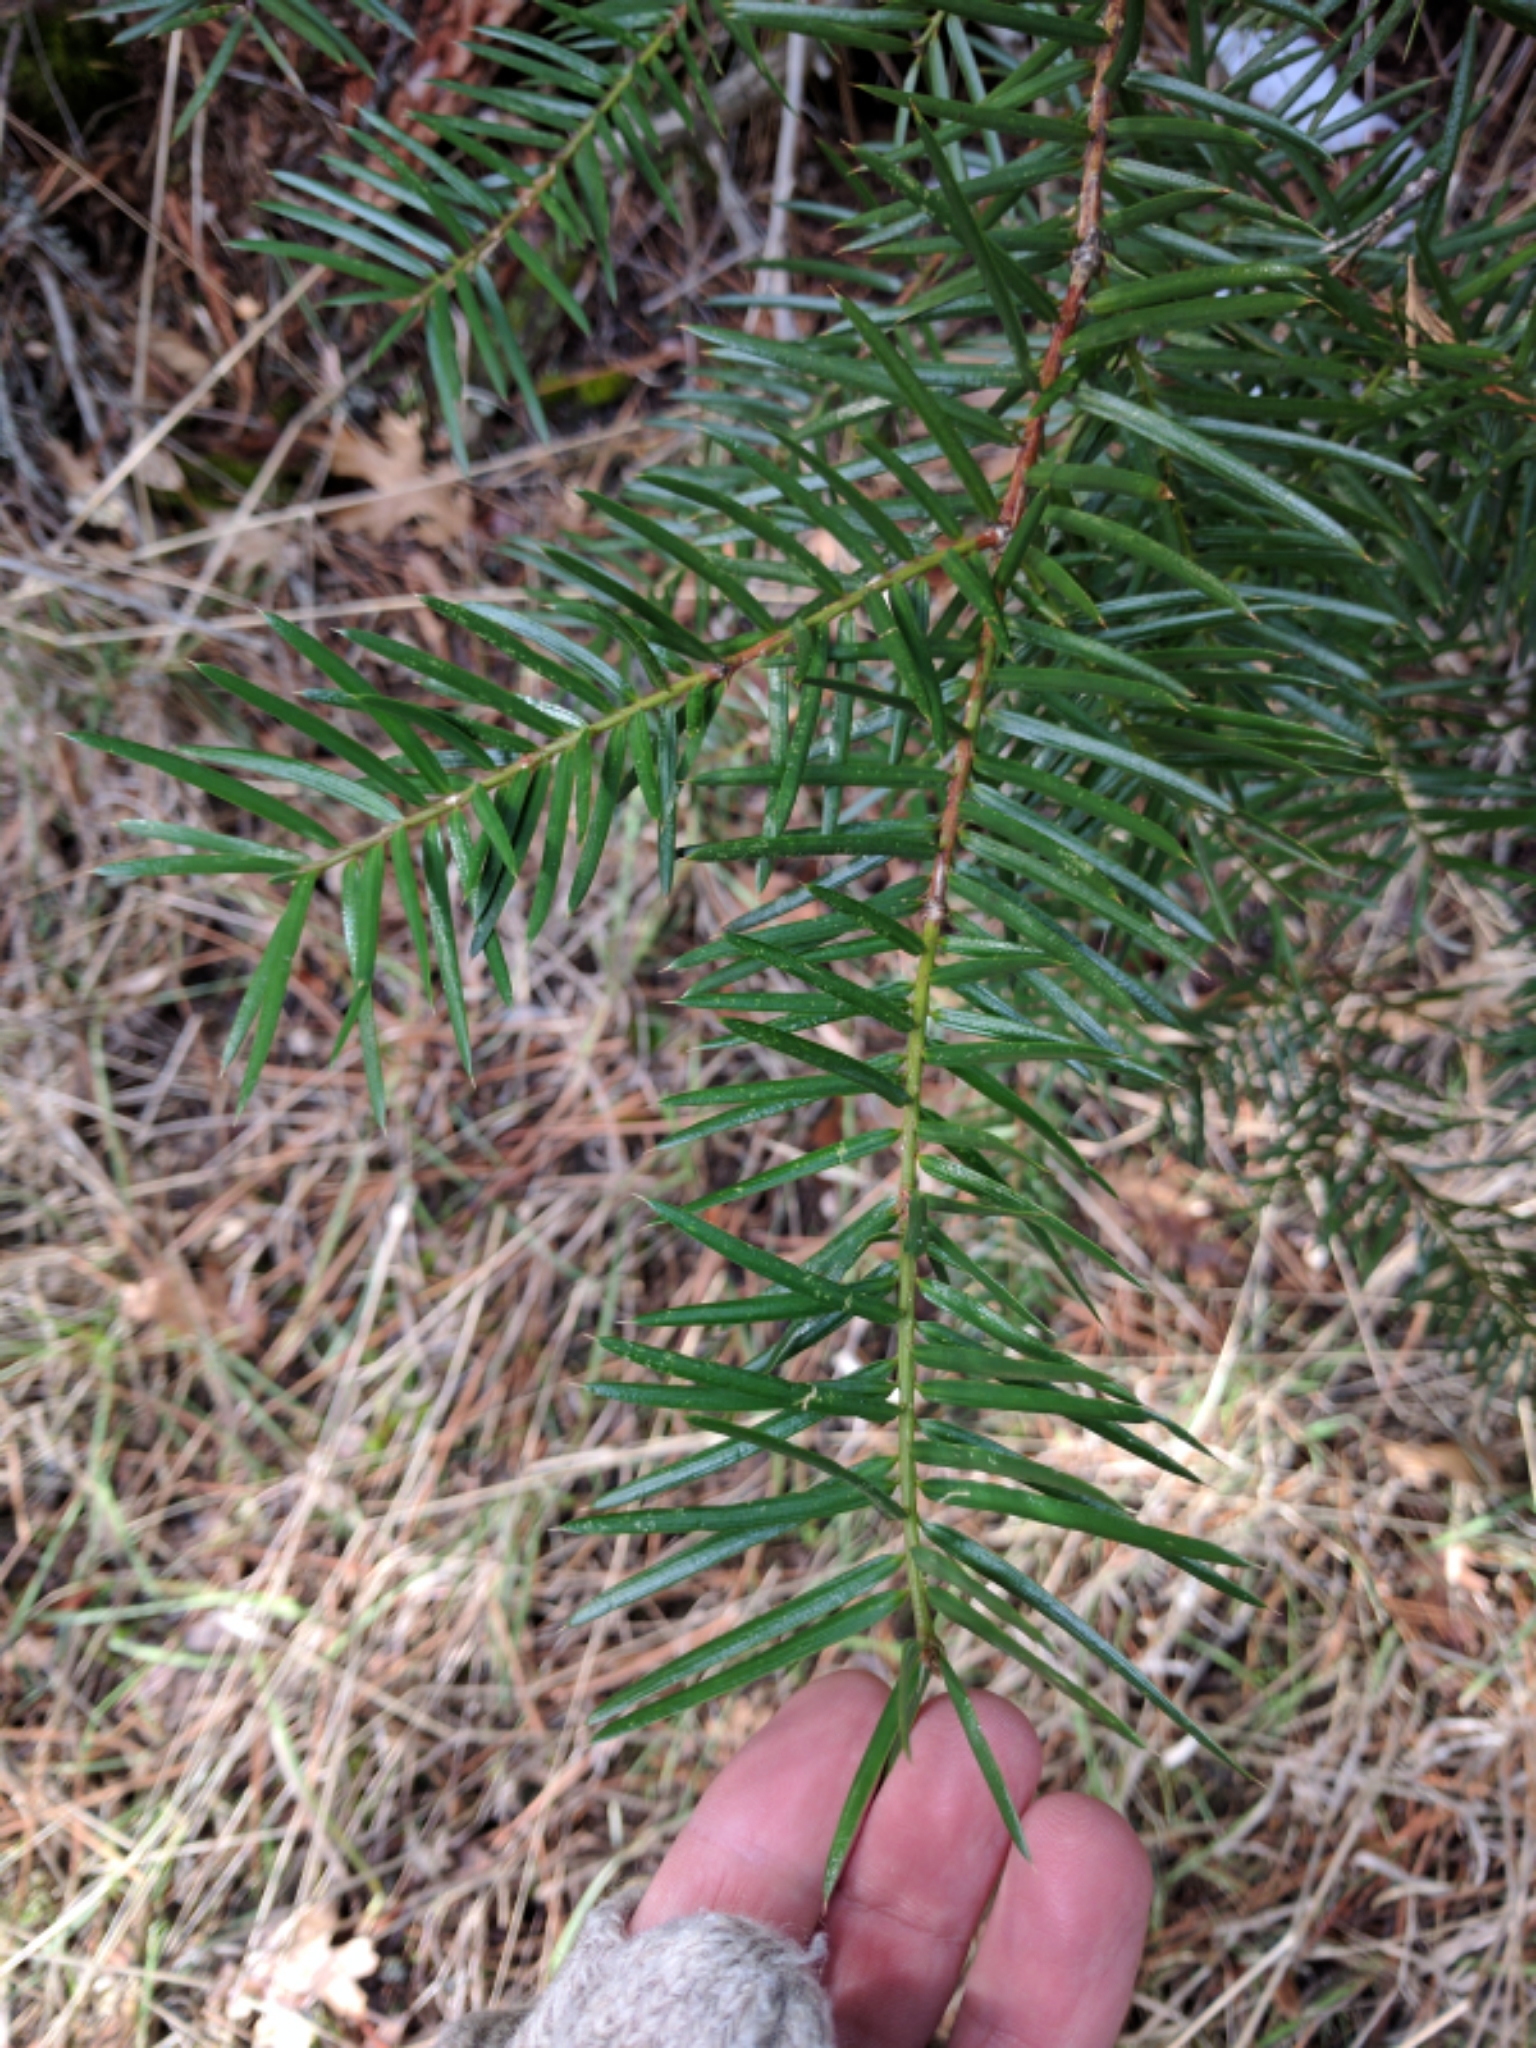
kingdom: Plantae
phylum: Tracheophyta
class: Pinopsida
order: Pinales
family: Taxaceae
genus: Torreya
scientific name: Torreya californica
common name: California torreya
